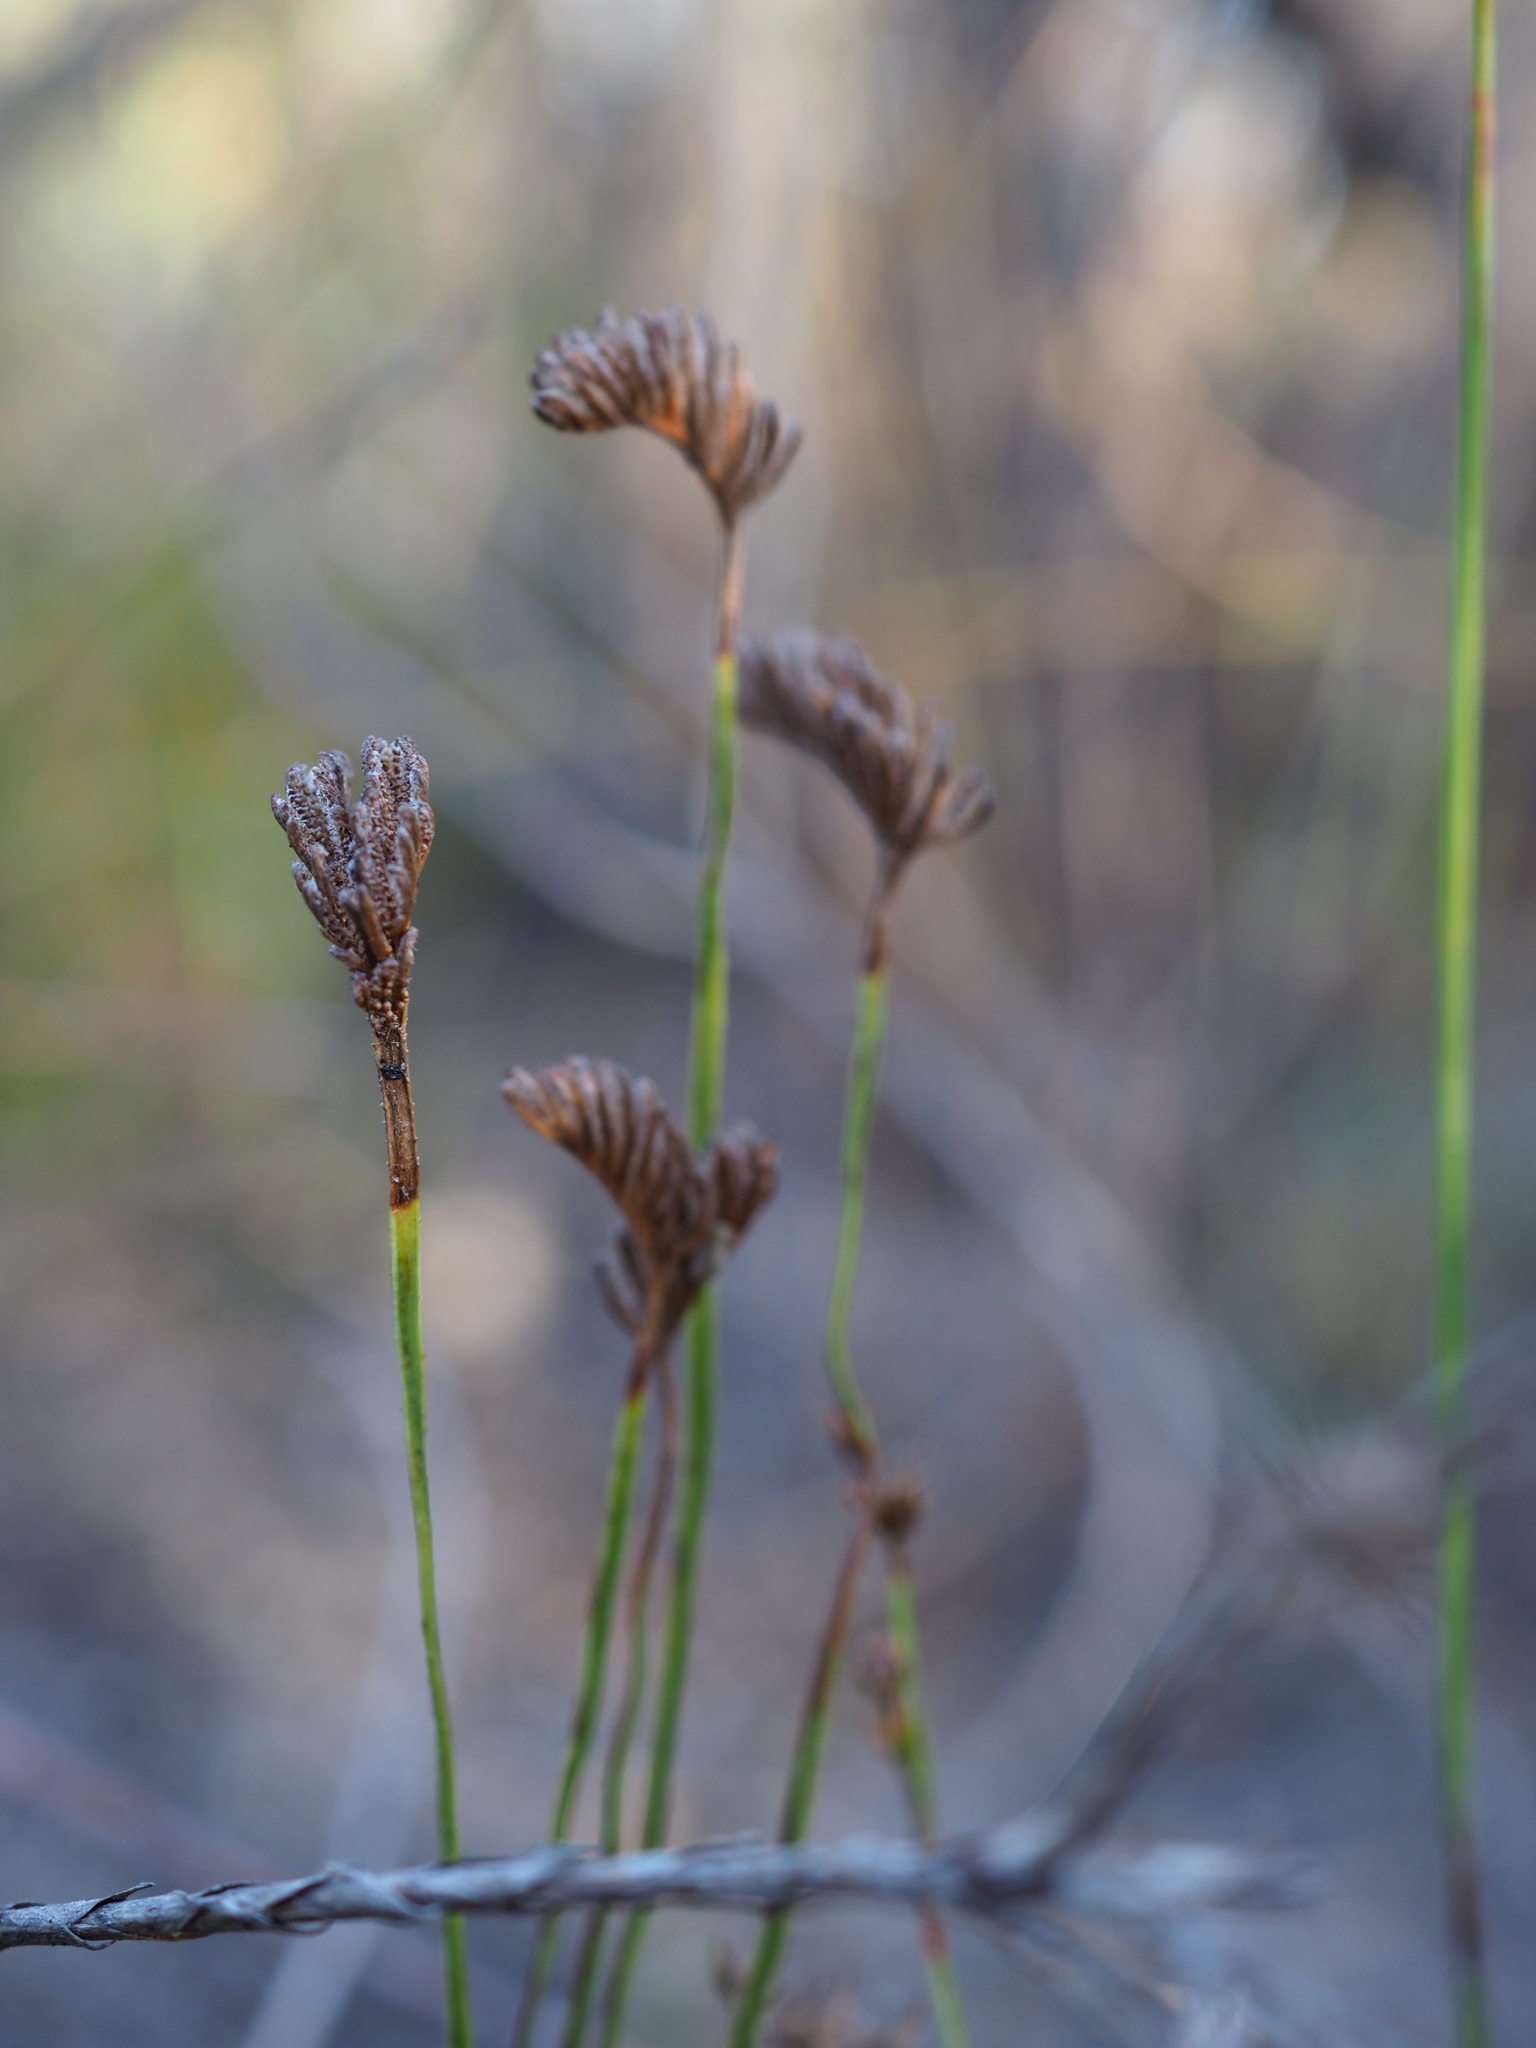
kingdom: Plantae
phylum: Tracheophyta
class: Polypodiopsida
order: Schizaeales
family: Schizaeaceae
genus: Microschizaea
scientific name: Microschizaea fistulosa
